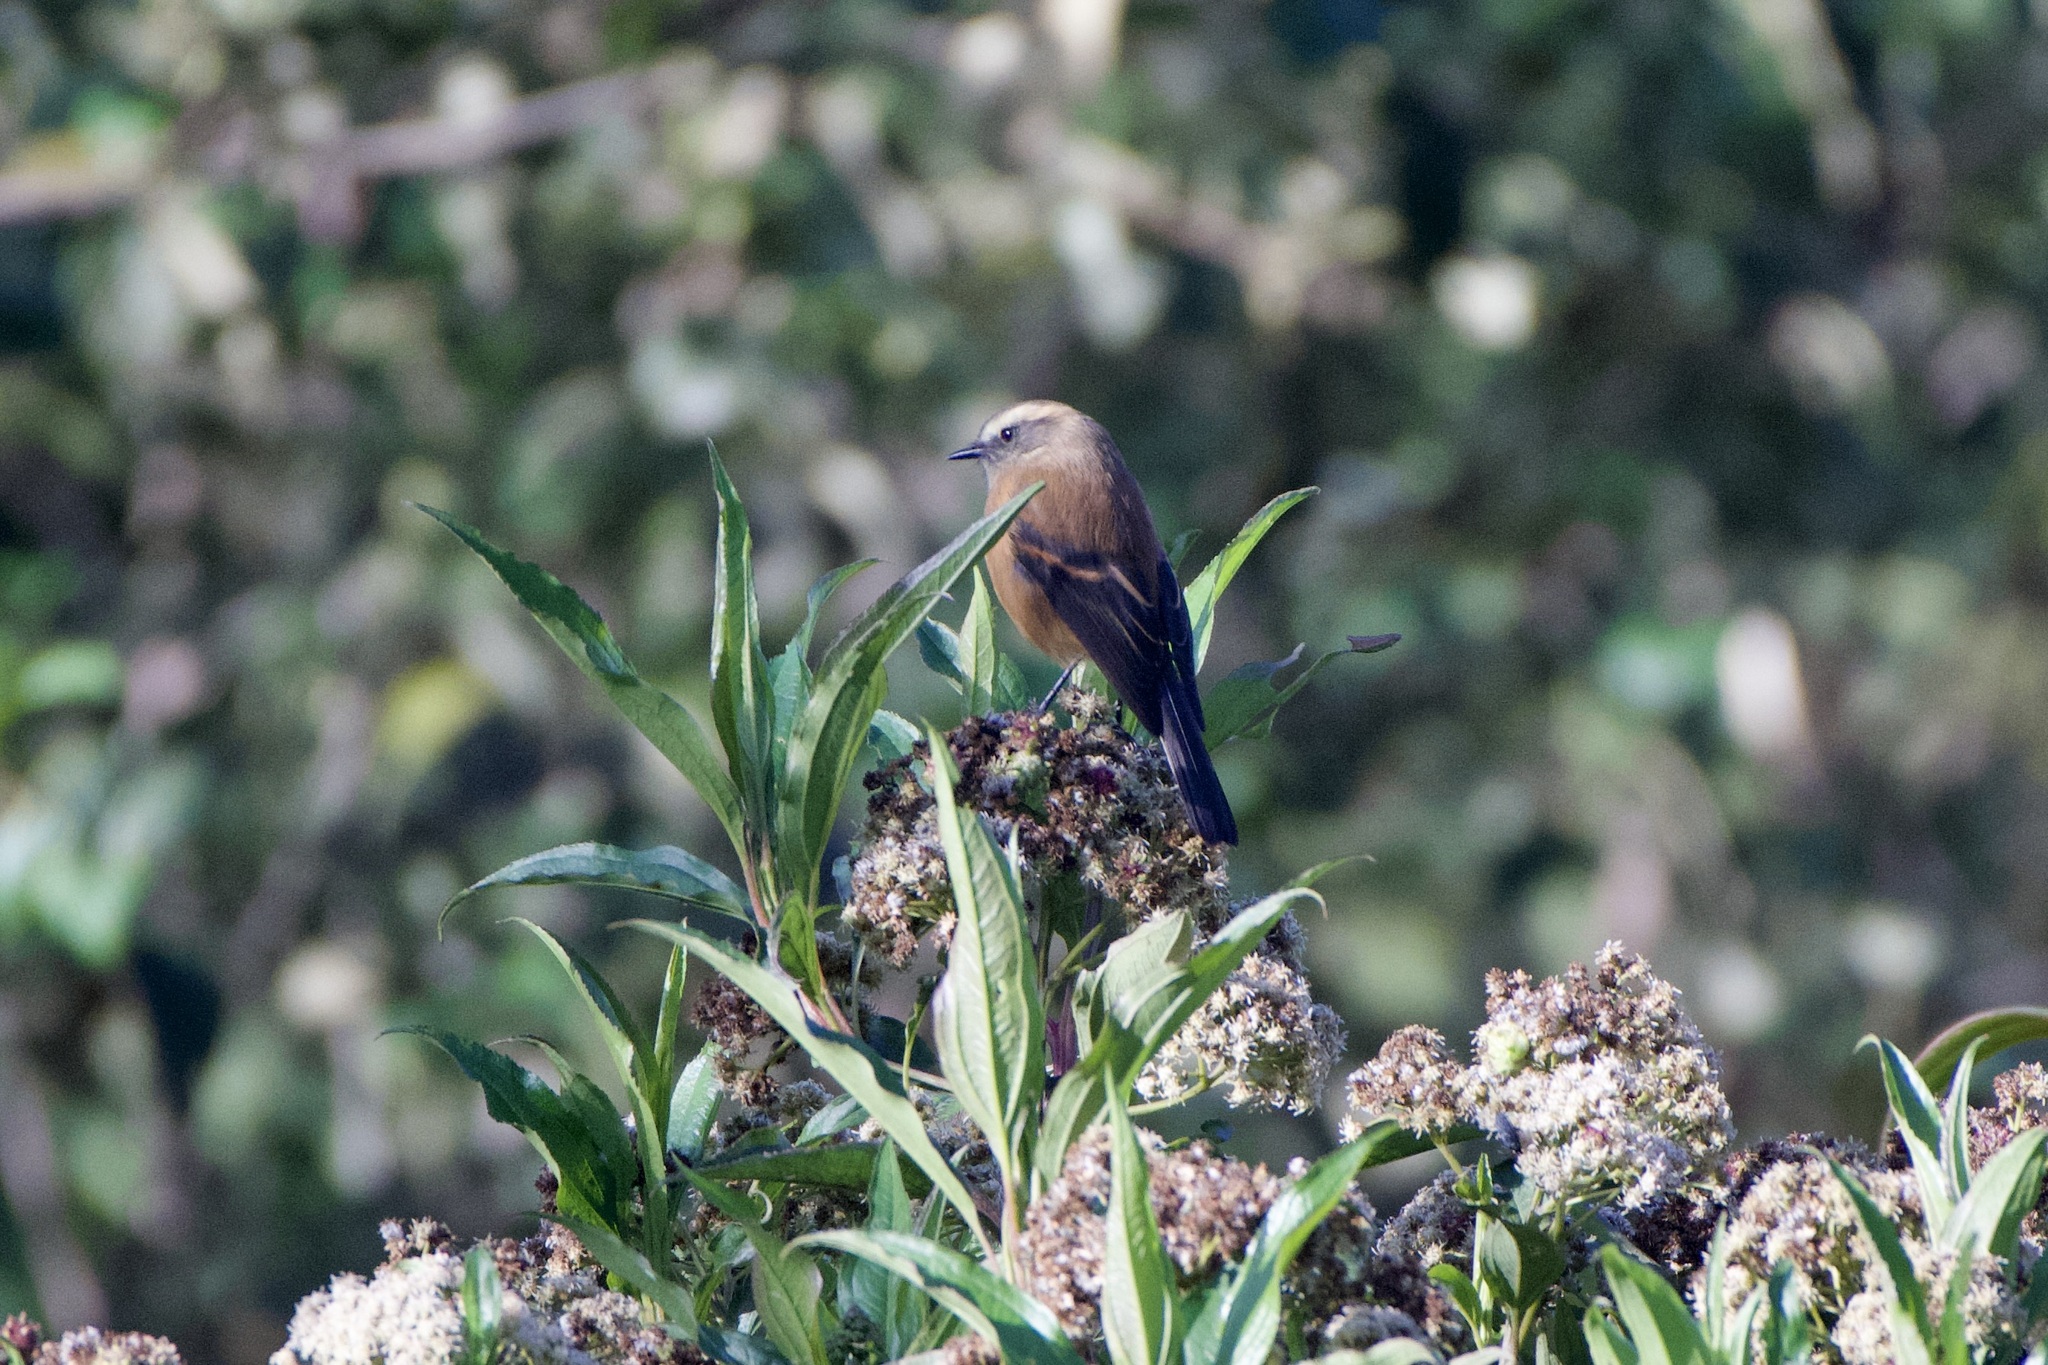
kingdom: Animalia
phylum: Chordata
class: Aves
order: Passeriformes
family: Tyrannidae
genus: Ochthoeca
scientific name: Ochthoeca fumicolor
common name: Brown-backed chat-tyrant
